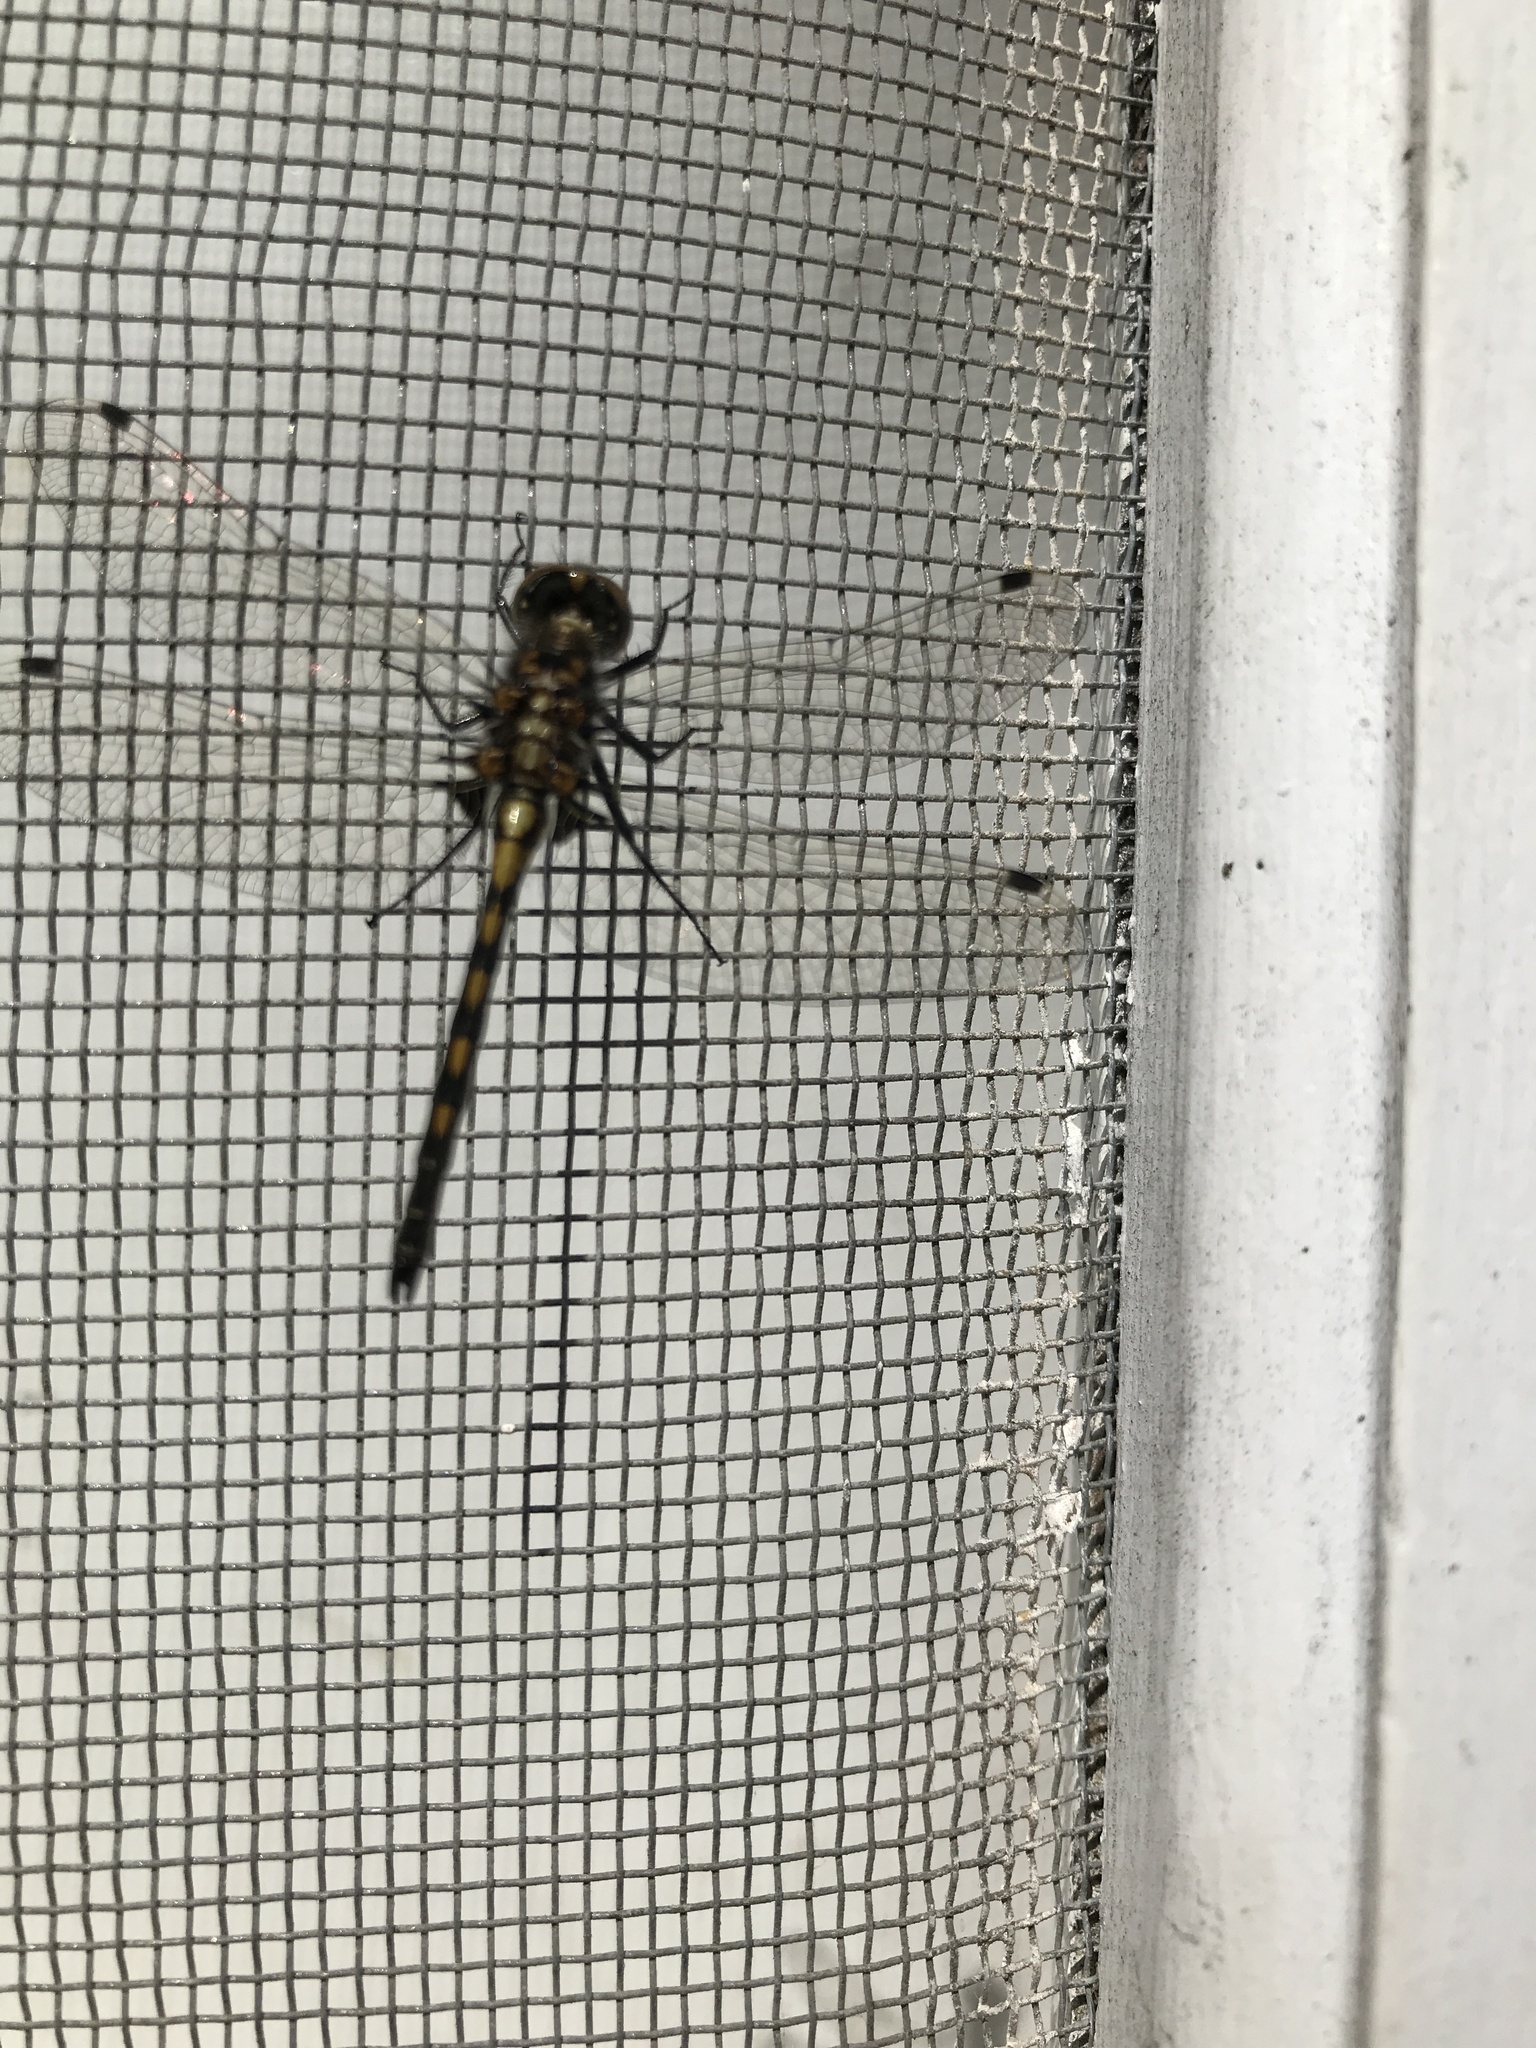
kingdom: Animalia
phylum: Arthropoda
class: Insecta
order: Odonata
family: Libellulidae
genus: Leucorrhinia
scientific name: Leucorrhinia hudsonica
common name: Hudsonian whiteface
